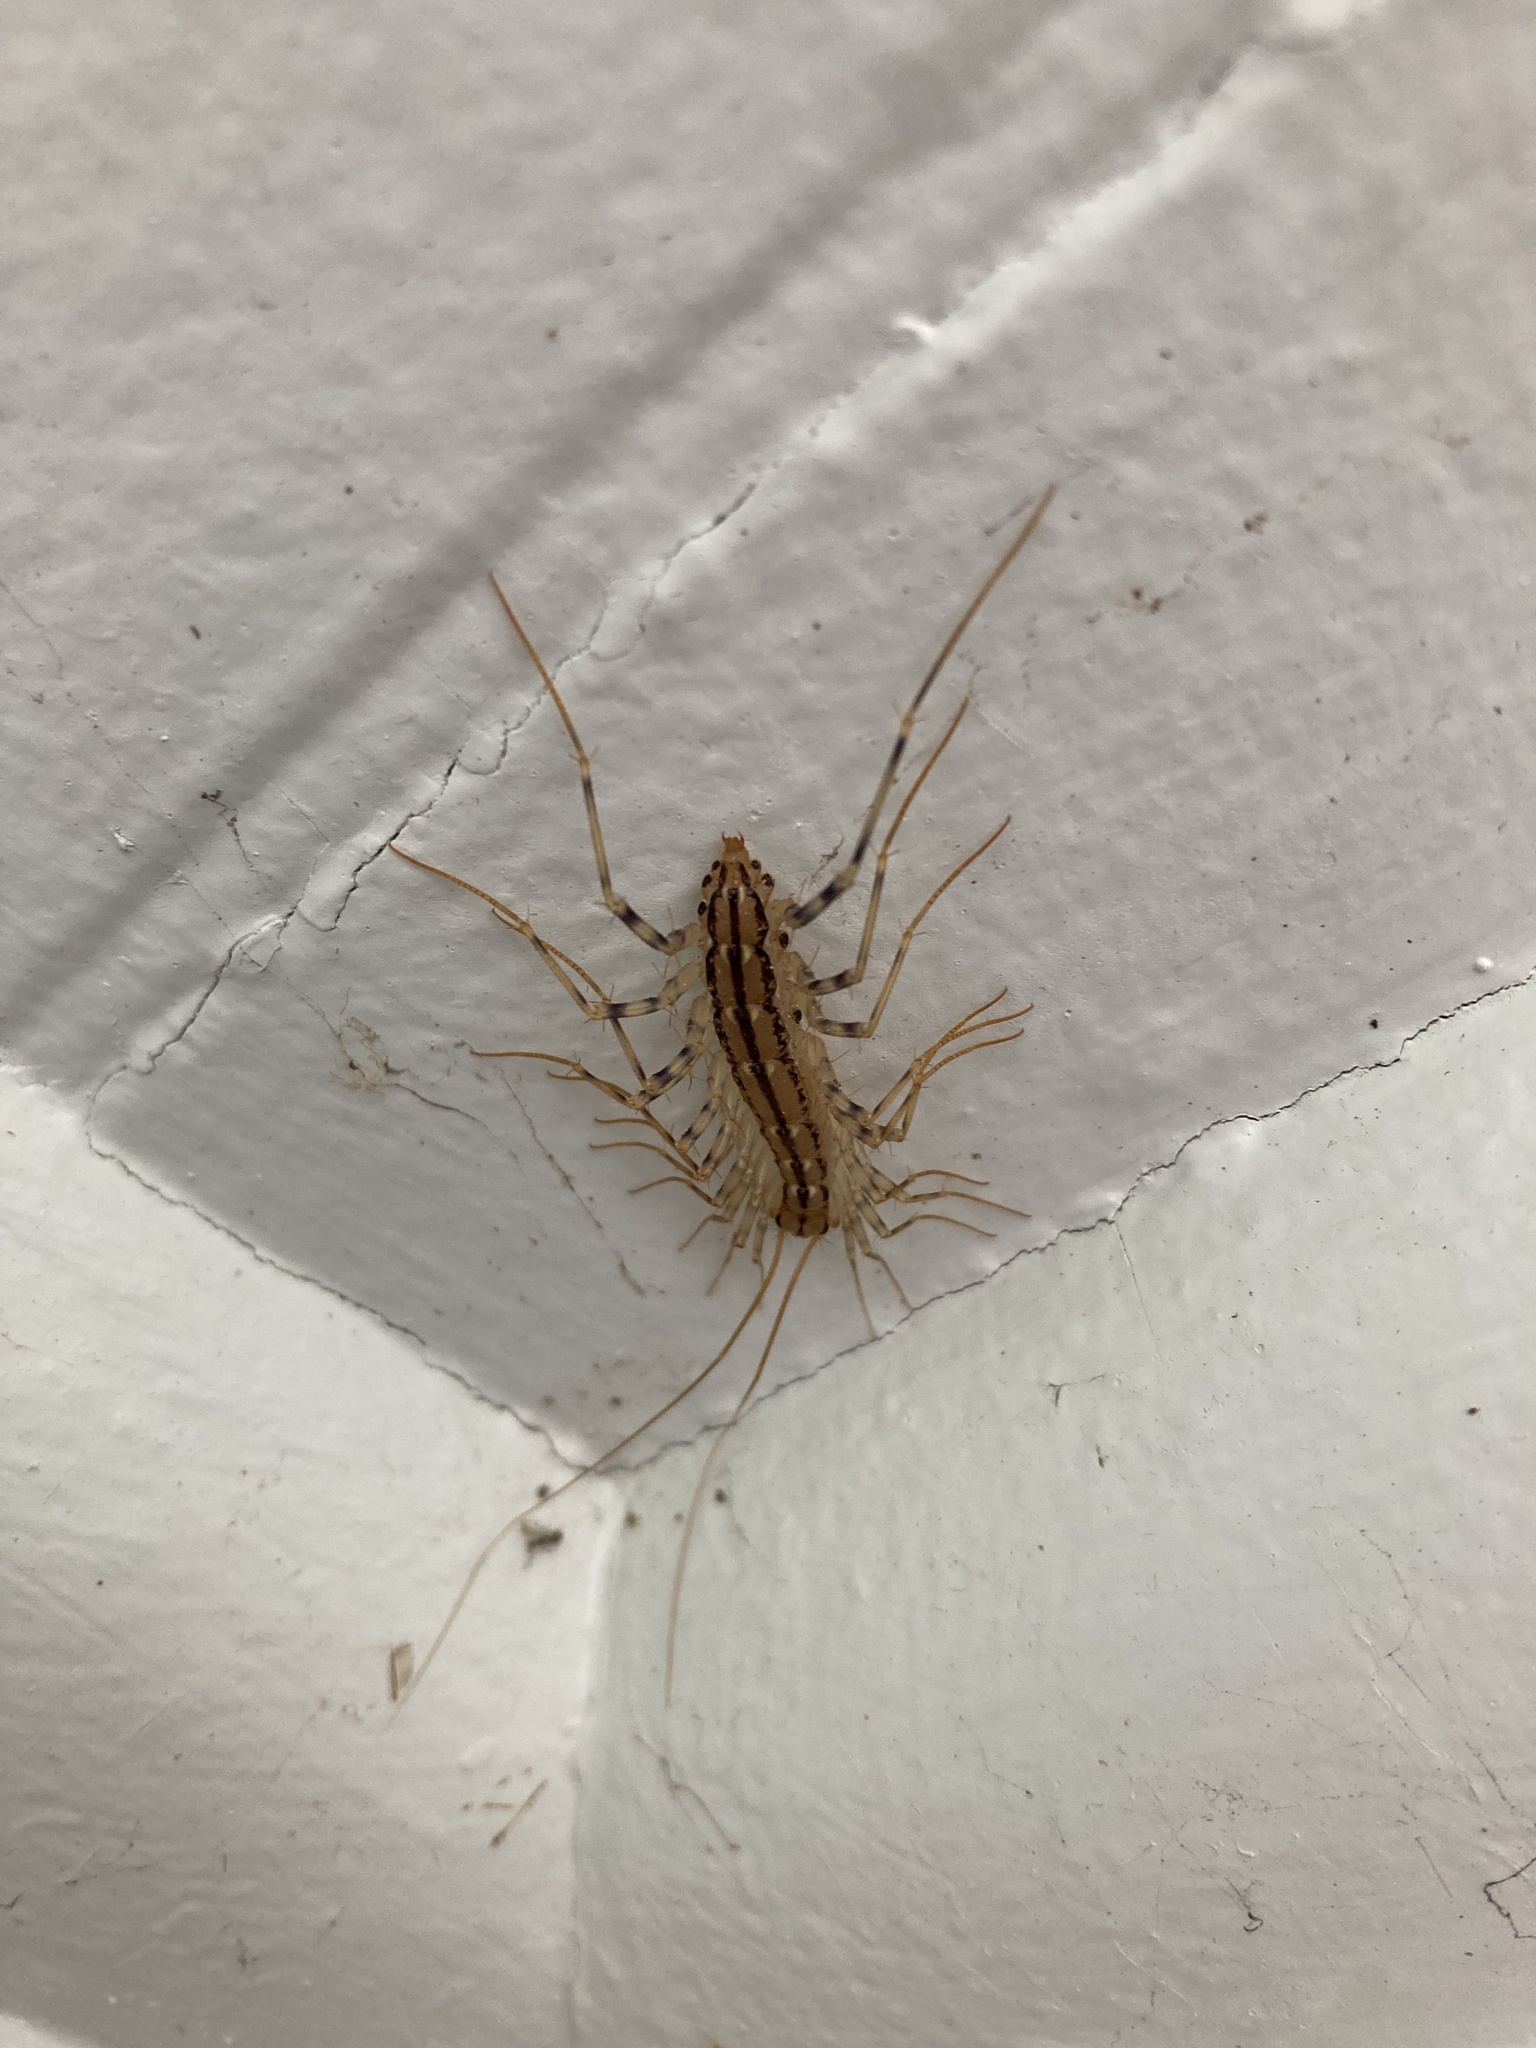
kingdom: Animalia
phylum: Arthropoda
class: Chilopoda
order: Scutigeromorpha
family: Scutigeridae
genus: Scutigera
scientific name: Scutigera coleoptrata
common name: House centipede
